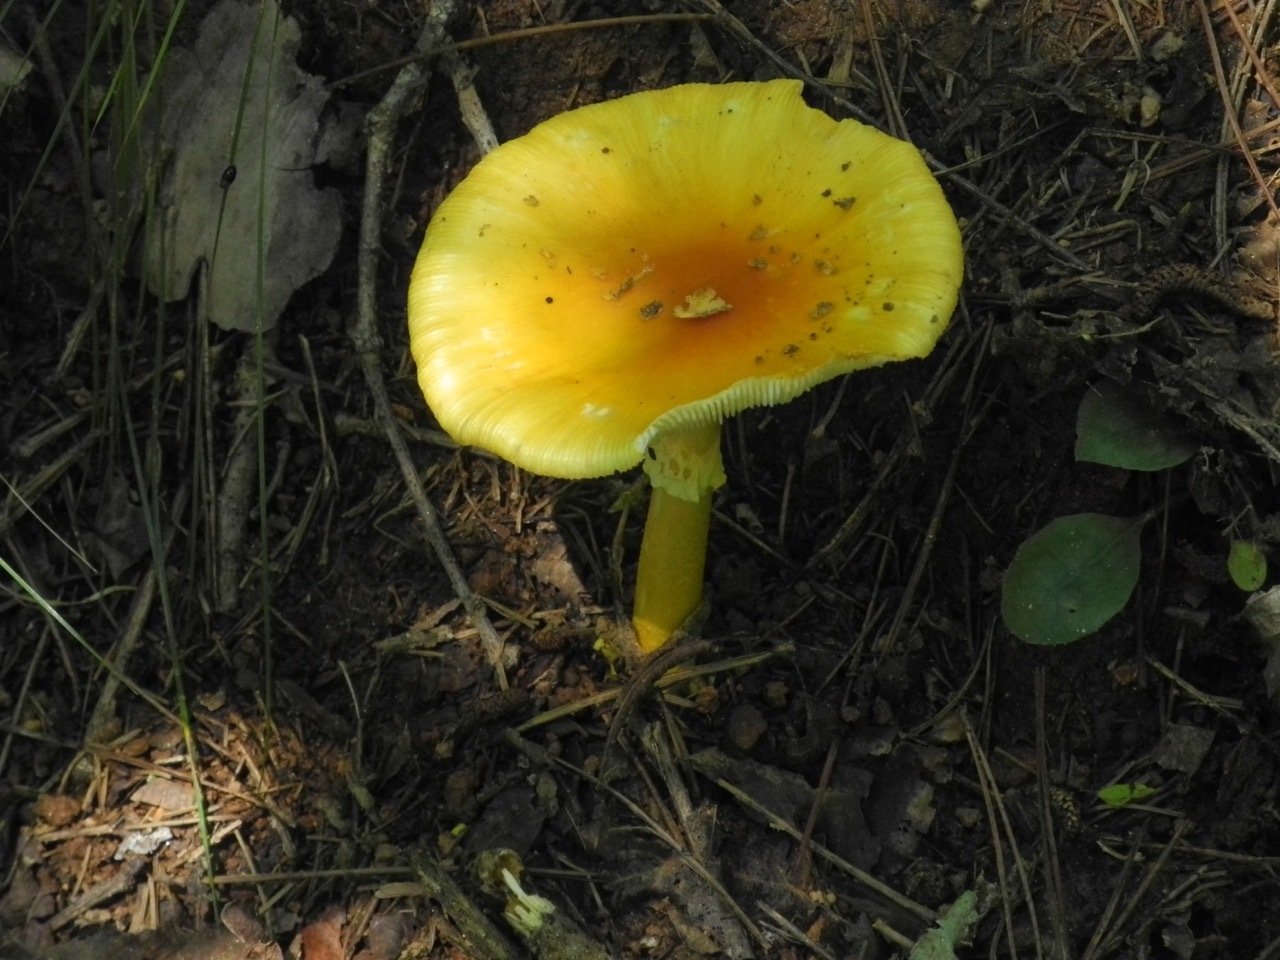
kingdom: Fungi
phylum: Basidiomycota
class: Agaricomycetes
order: Agaricales
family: Amanitaceae
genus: Amanita
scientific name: Amanita flavoconia
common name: Yellow patches
